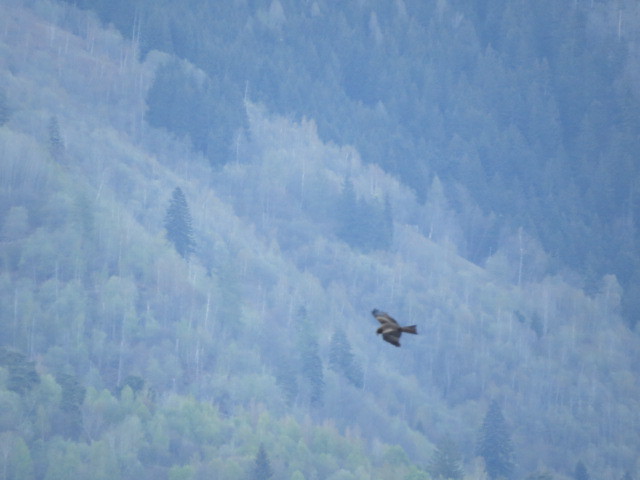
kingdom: Animalia
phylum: Chordata
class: Aves
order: Accipitriformes
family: Accipitridae
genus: Milvus
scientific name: Milvus migrans
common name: Black kite
